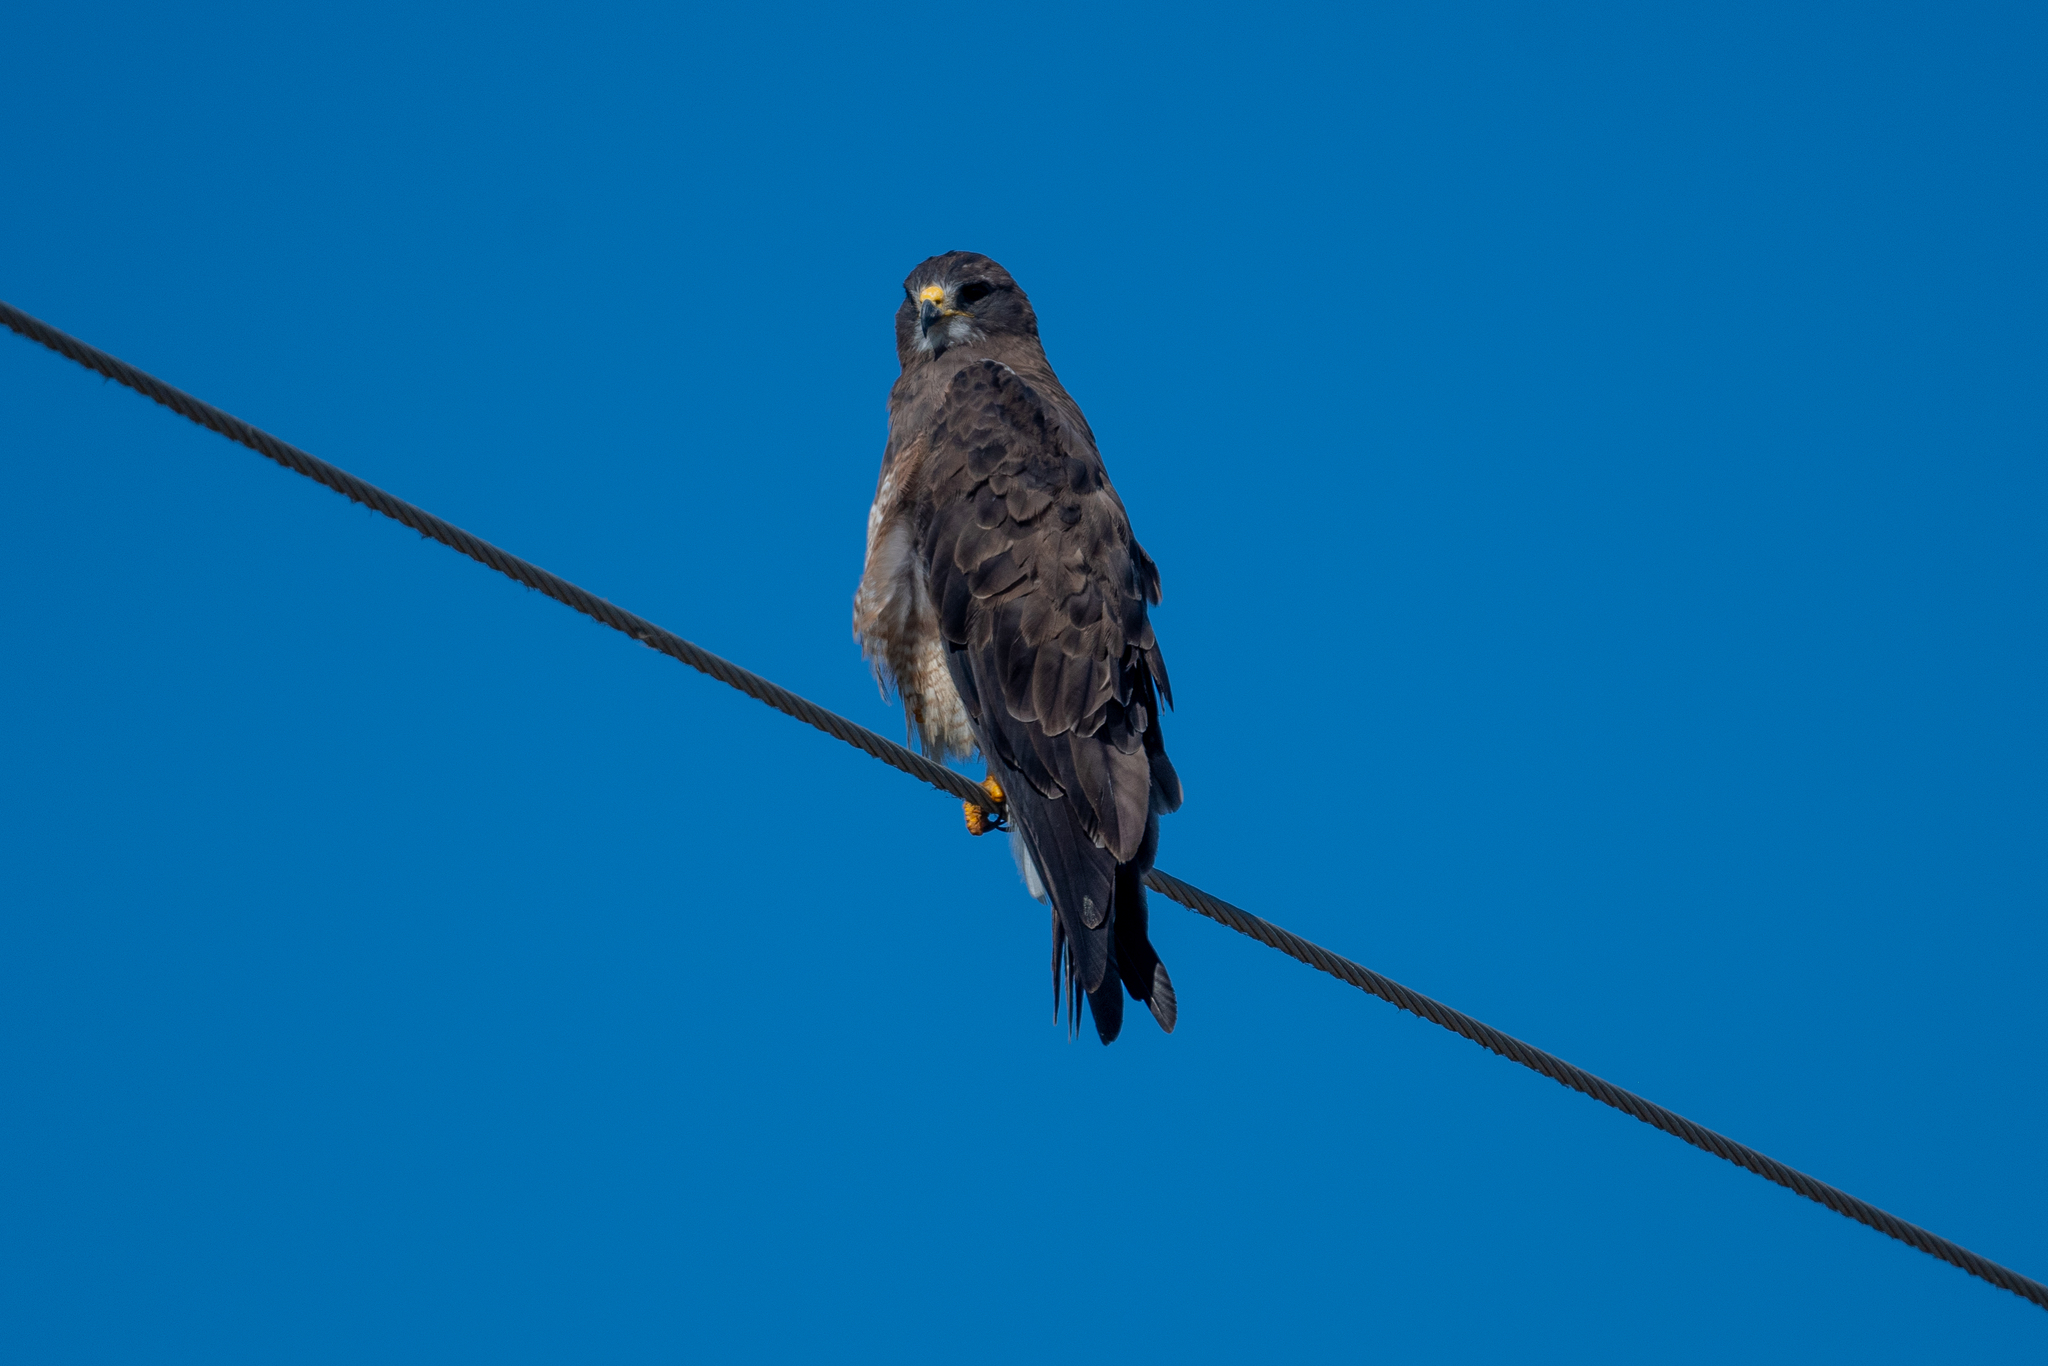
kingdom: Animalia
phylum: Chordata
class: Aves
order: Accipitriformes
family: Accipitridae
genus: Buteo
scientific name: Buteo swainsoni
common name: Swainson's hawk
